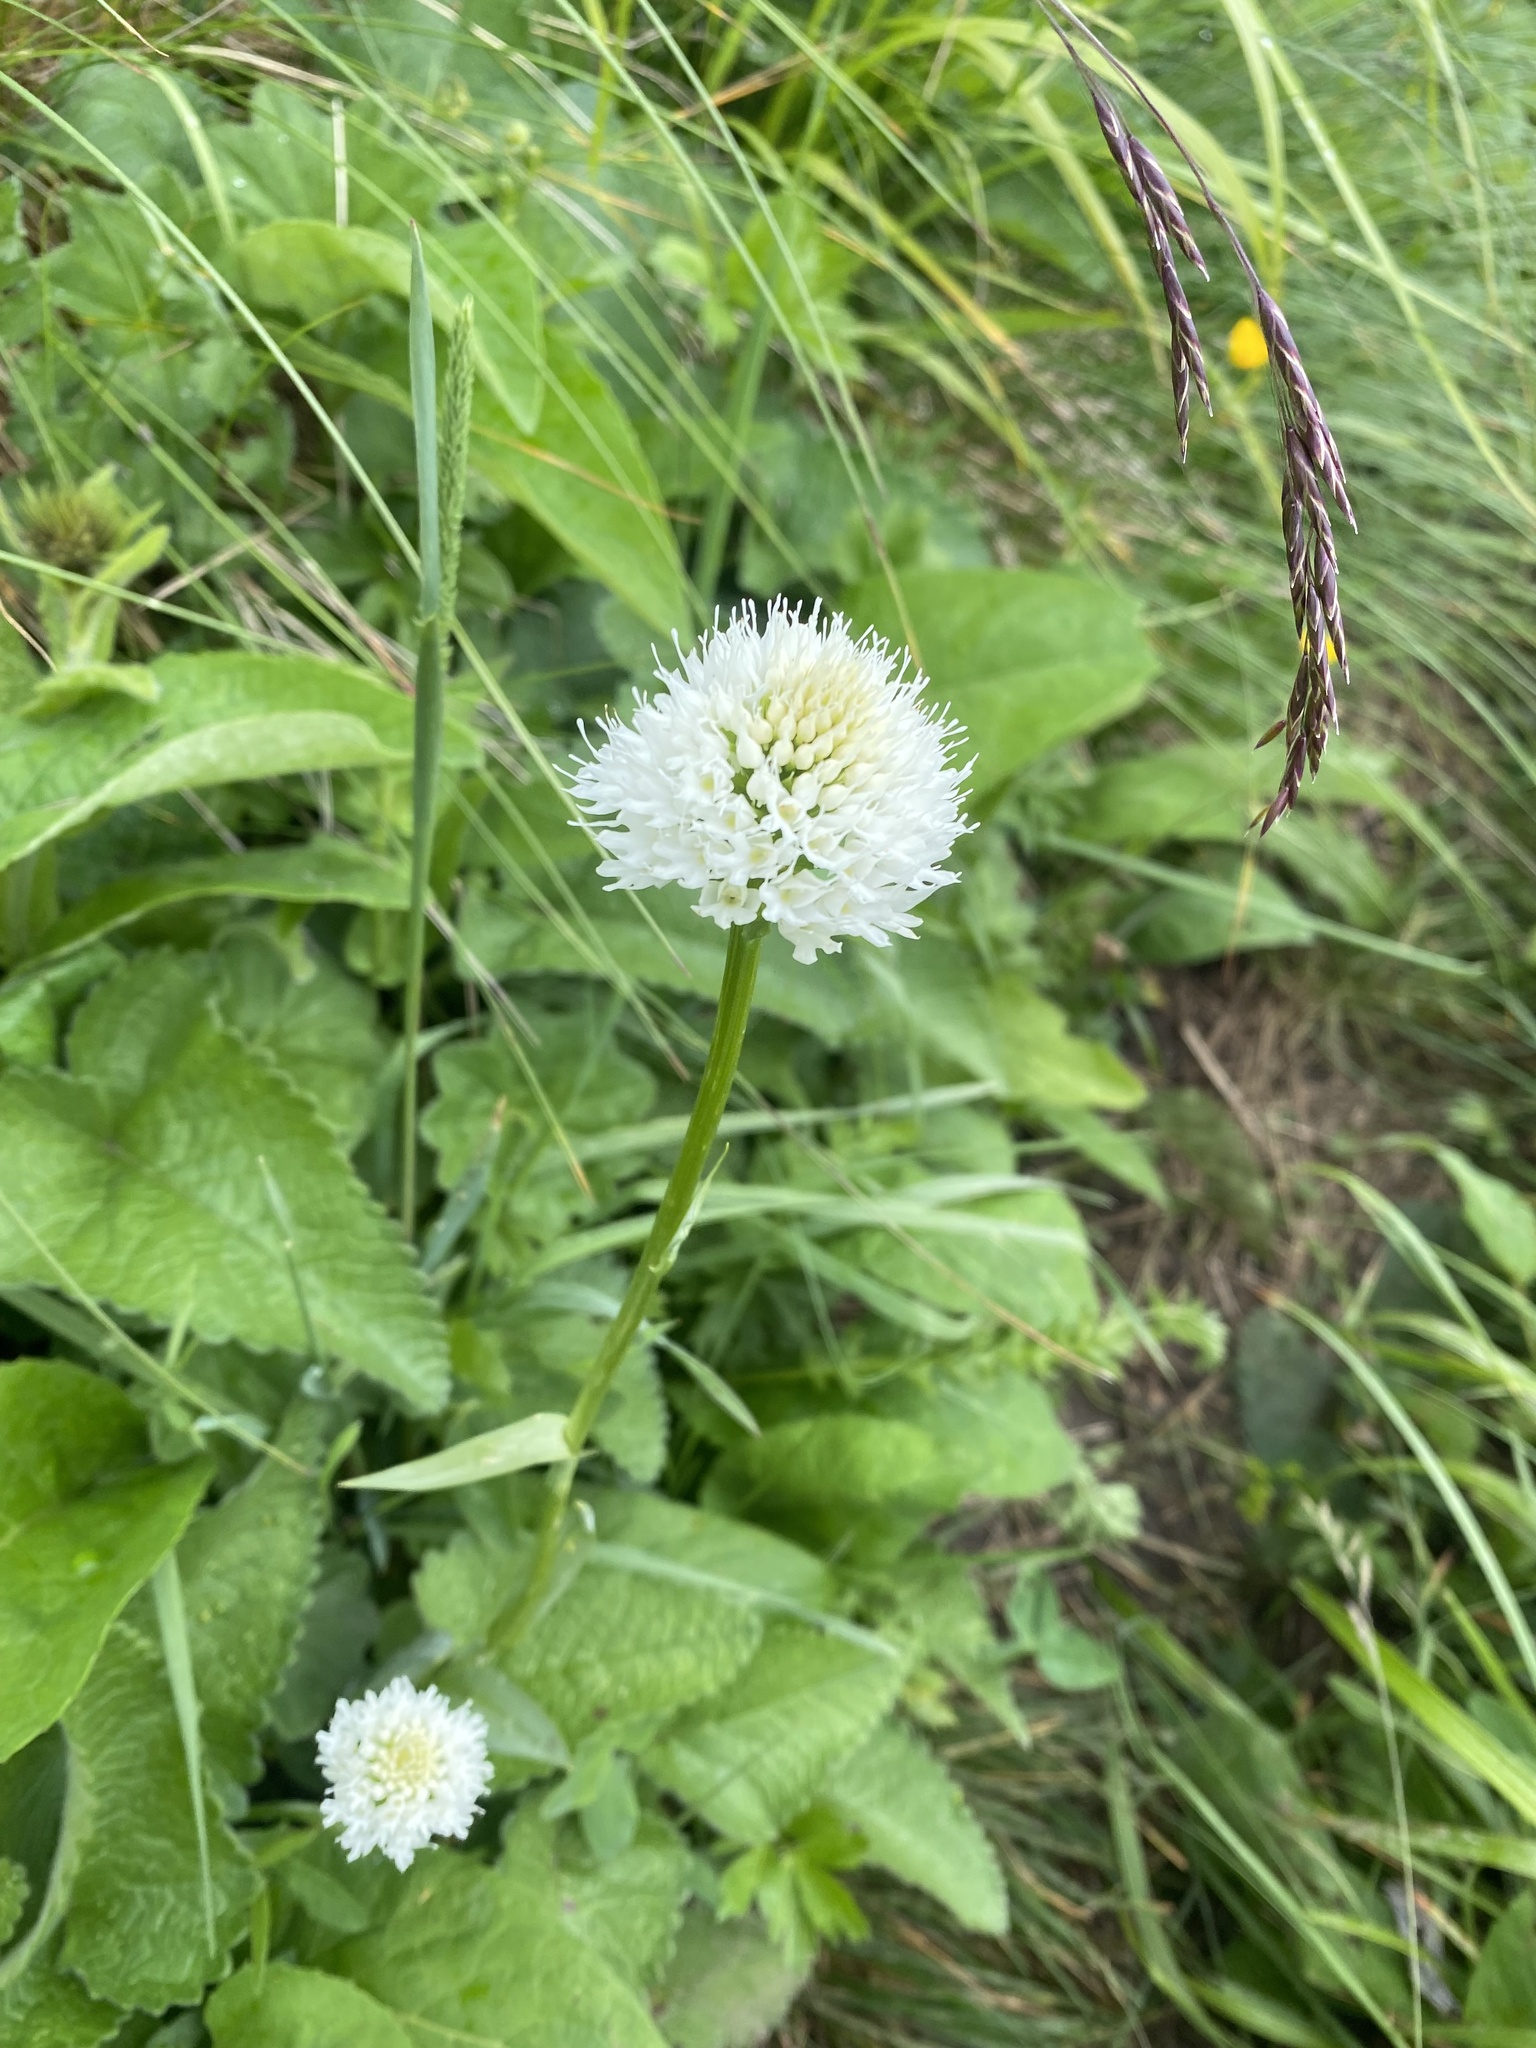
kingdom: Plantae
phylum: Tracheophyta
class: Liliopsida
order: Asparagales
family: Orchidaceae
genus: Traunsteinera
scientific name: Traunsteinera sphaerica
